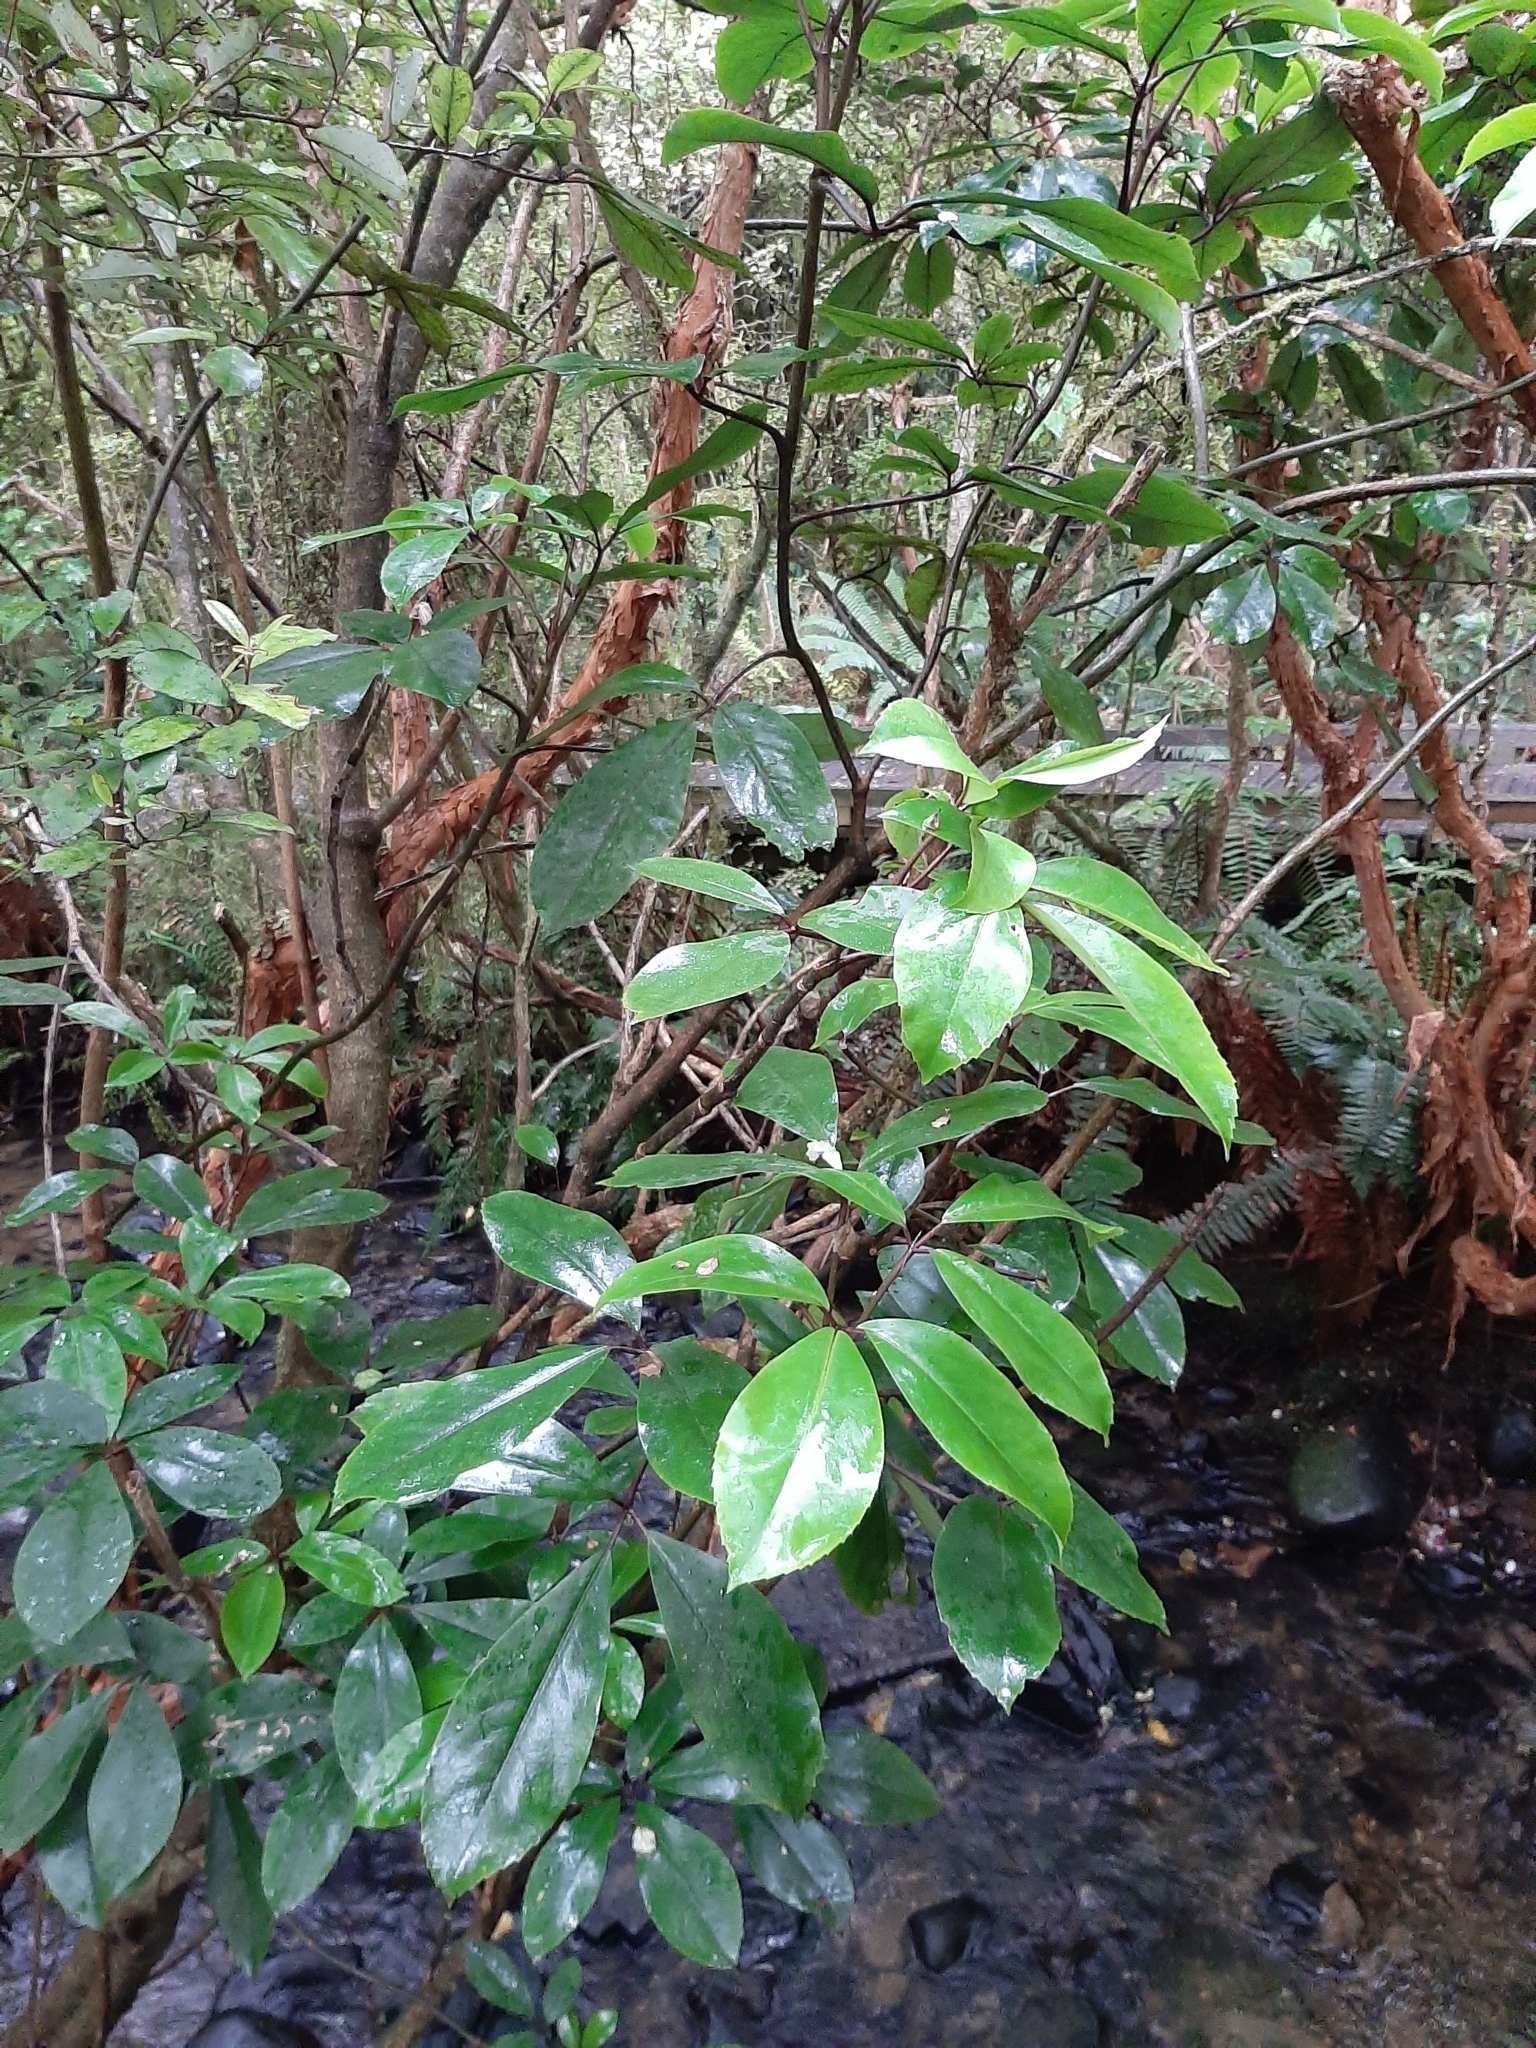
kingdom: Plantae
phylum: Tracheophyta
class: Magnoliopsida
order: Apiales
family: Araliaceae
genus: Neopanax
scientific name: Neopanax laetus
